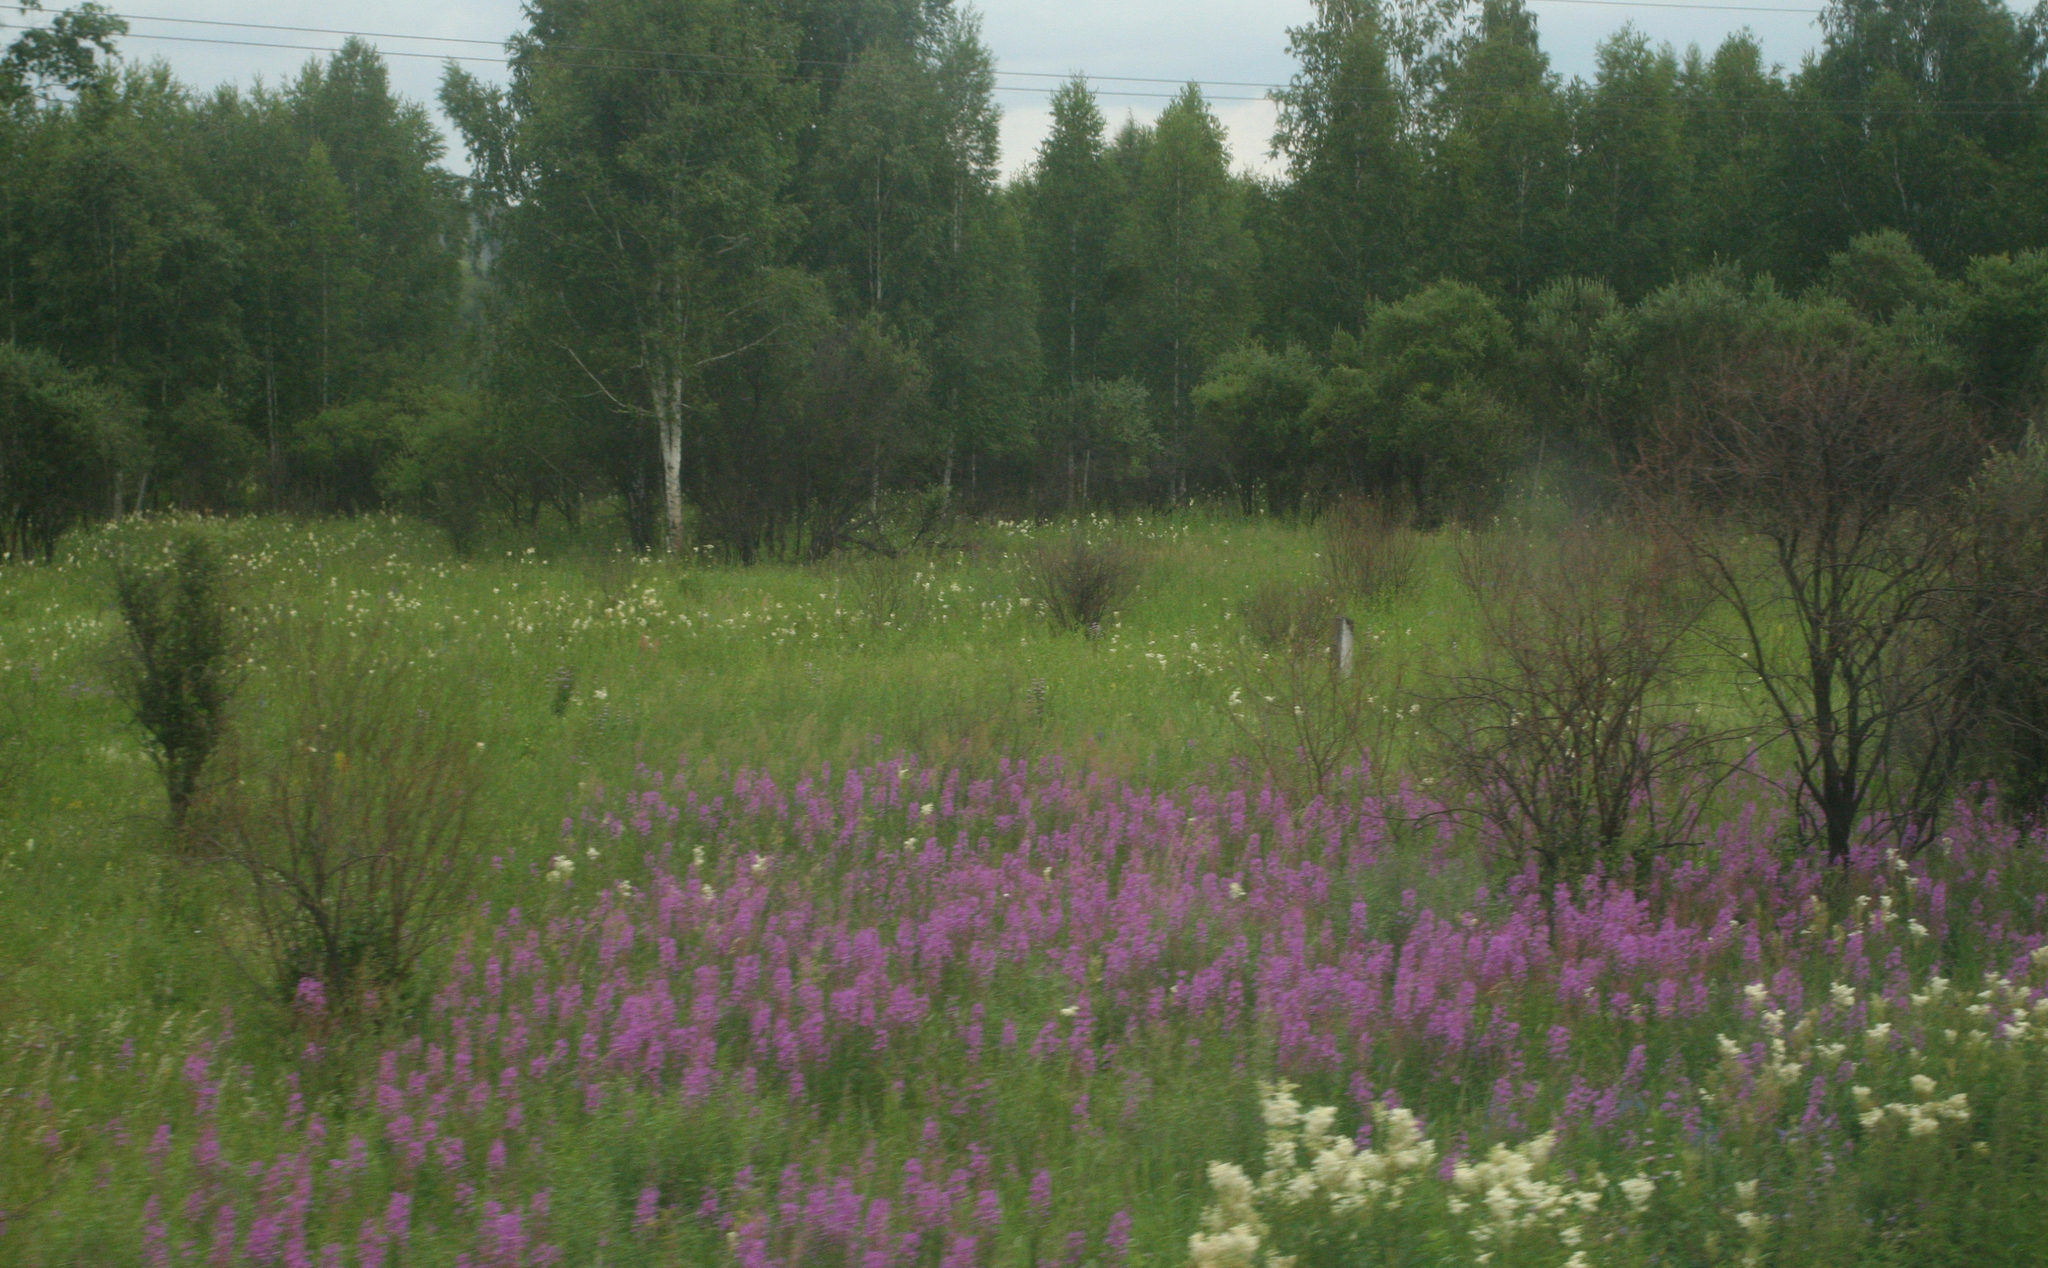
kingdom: Plantae
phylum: Tracheophyta
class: Magnoliopsida
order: Myrtales
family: Onagraceae
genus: Chamaenerion
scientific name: Chamaenerion angustifolium
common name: Fireweed
